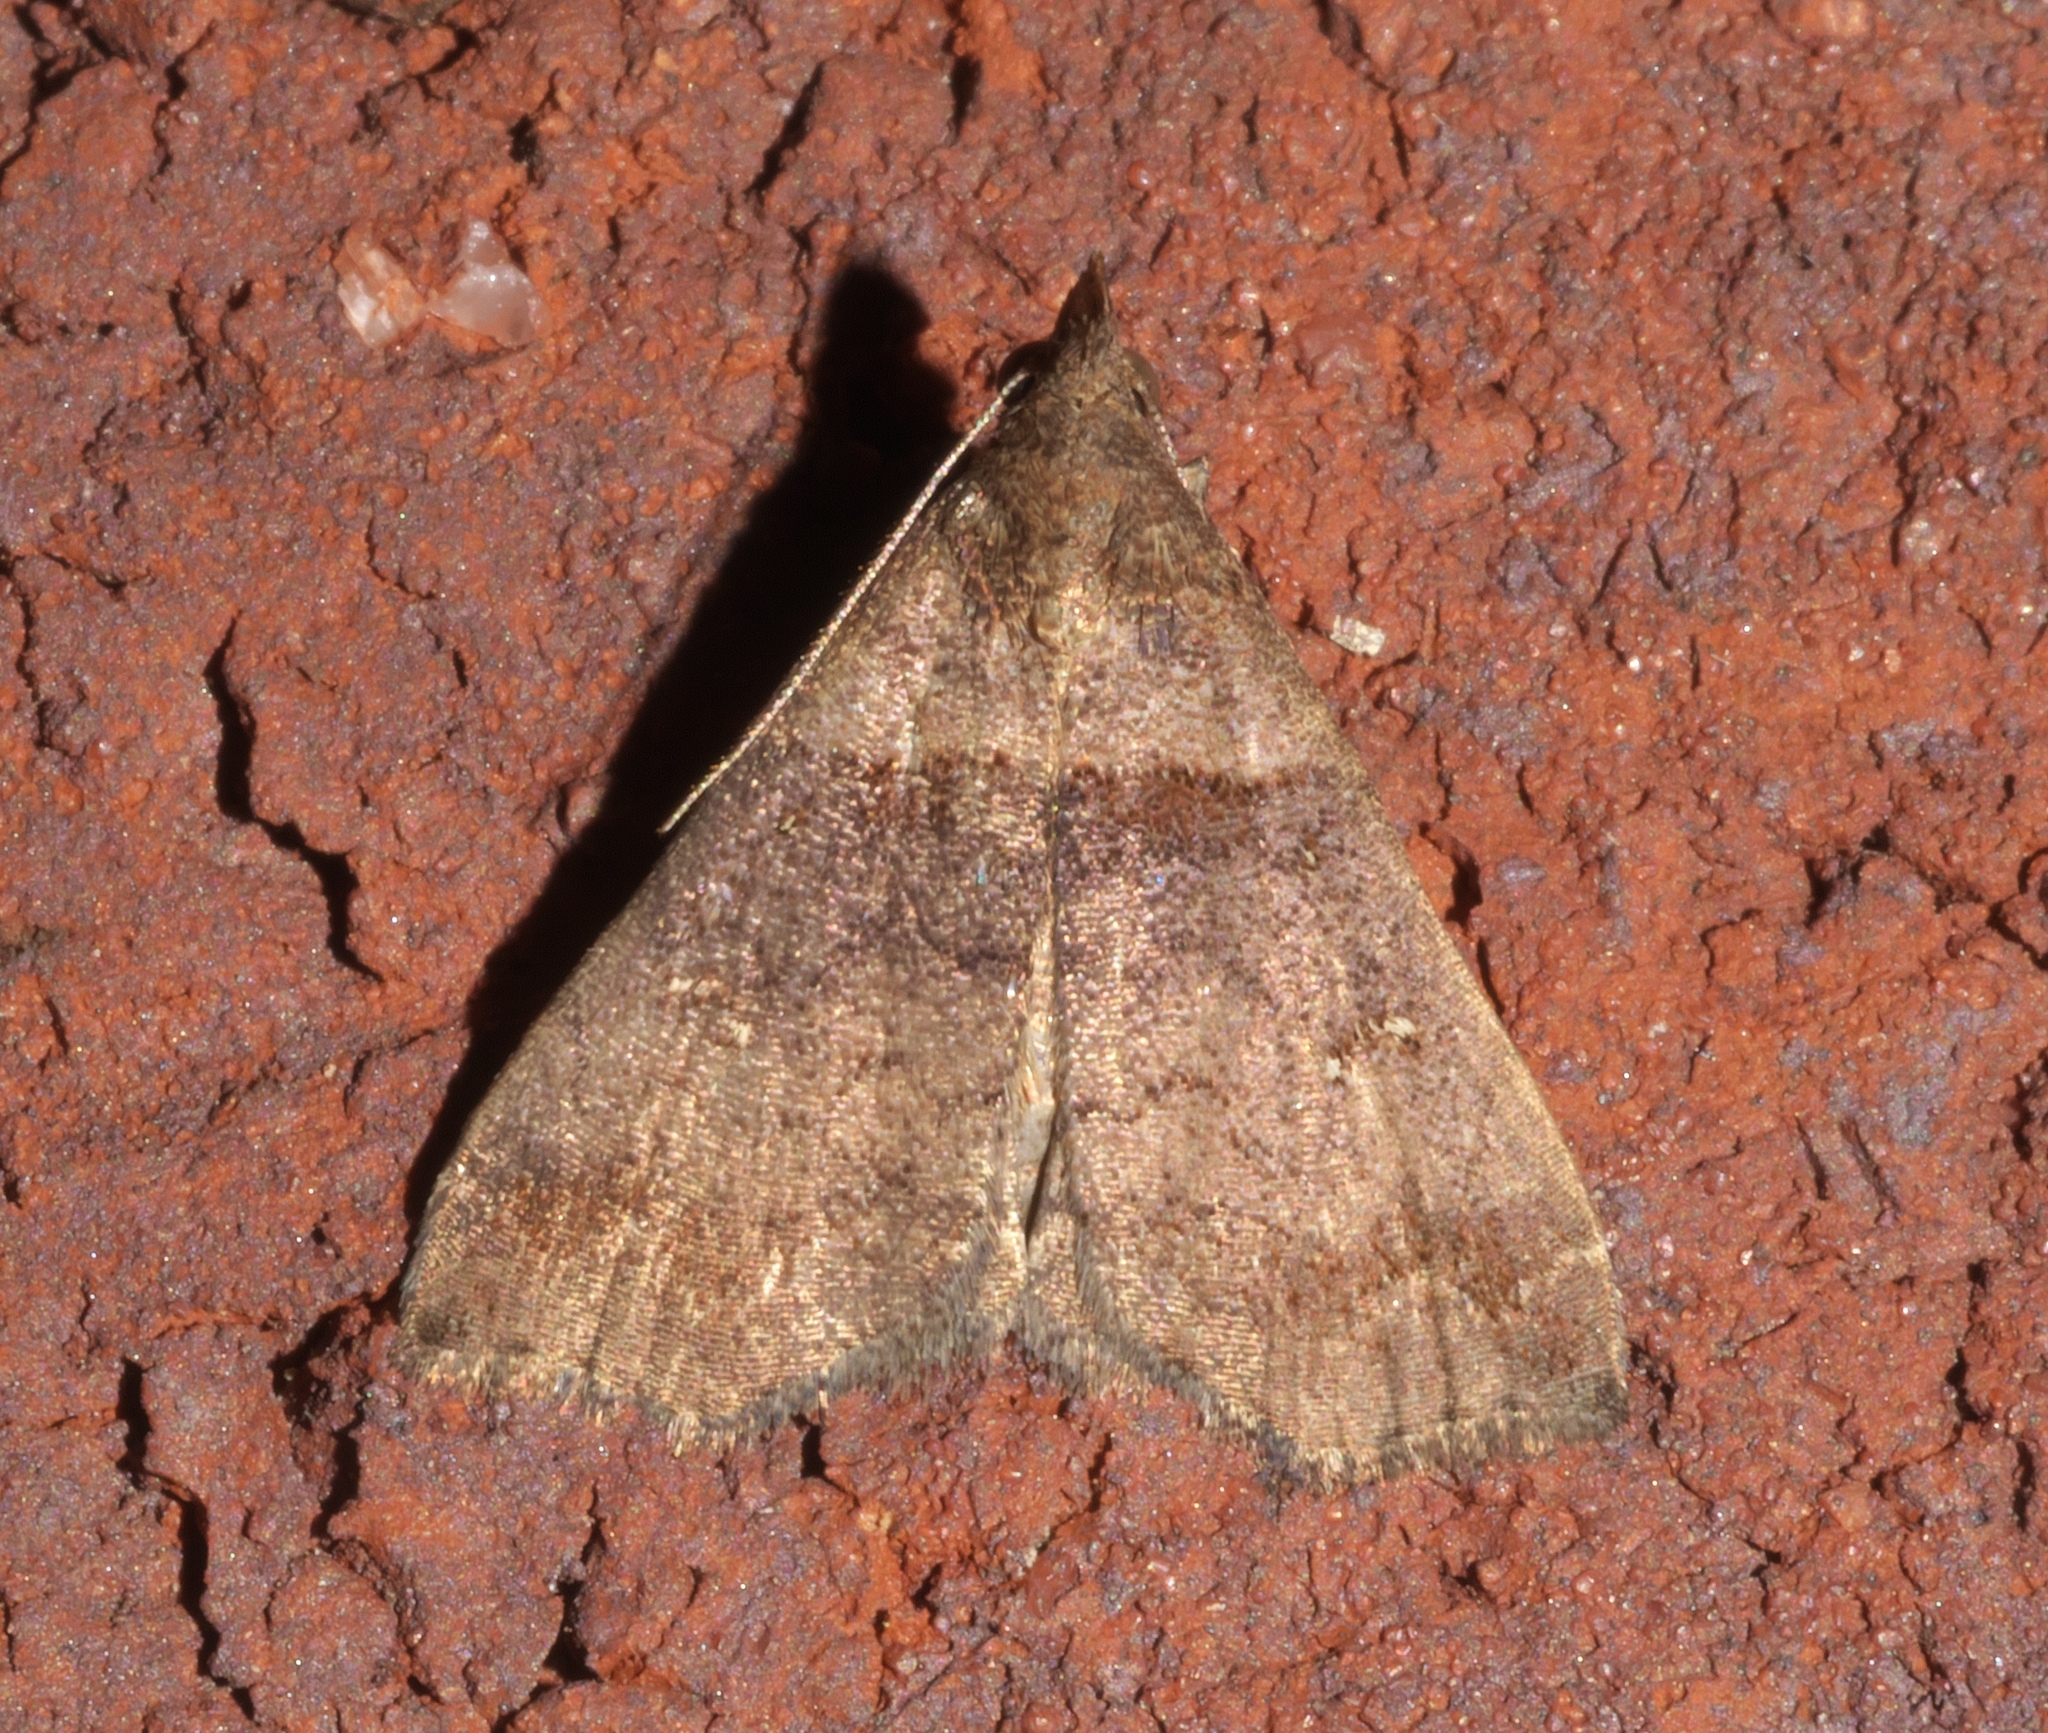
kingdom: Animalia
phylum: Arthropoda
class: Insecta
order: Lepidoptera
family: Erebidae
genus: Lascoria
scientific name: Lascoria ambigualis
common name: Ambiguous moth
